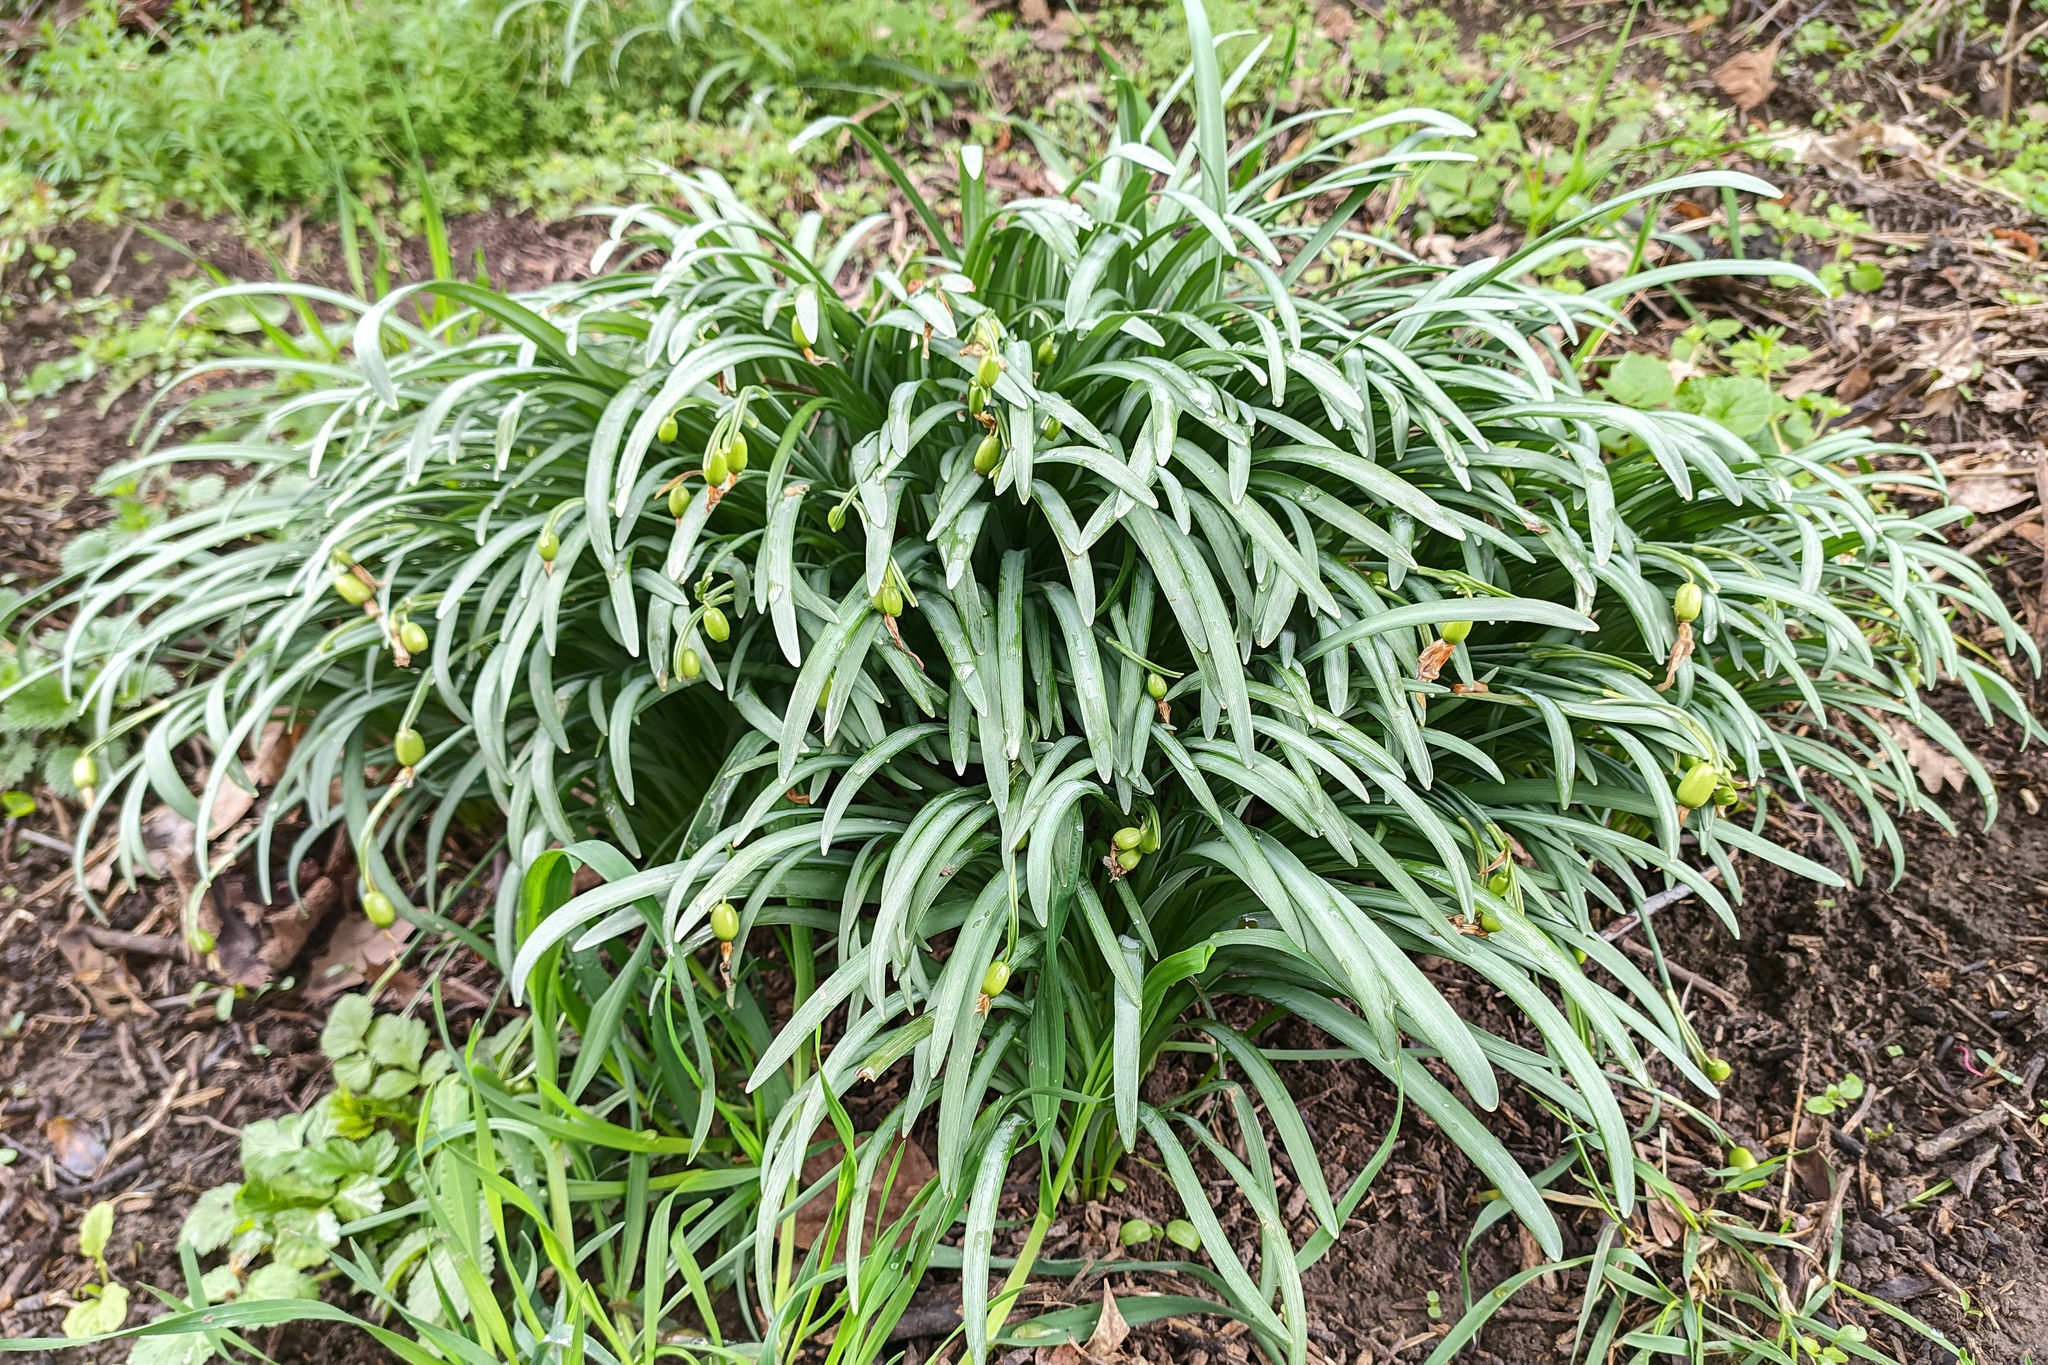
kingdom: Plantae
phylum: Tracheophyta
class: Liliopsida
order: Asparagales
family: Amaryllidaceae
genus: Galanthus
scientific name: Galanthus nivalis
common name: Snowdrop
